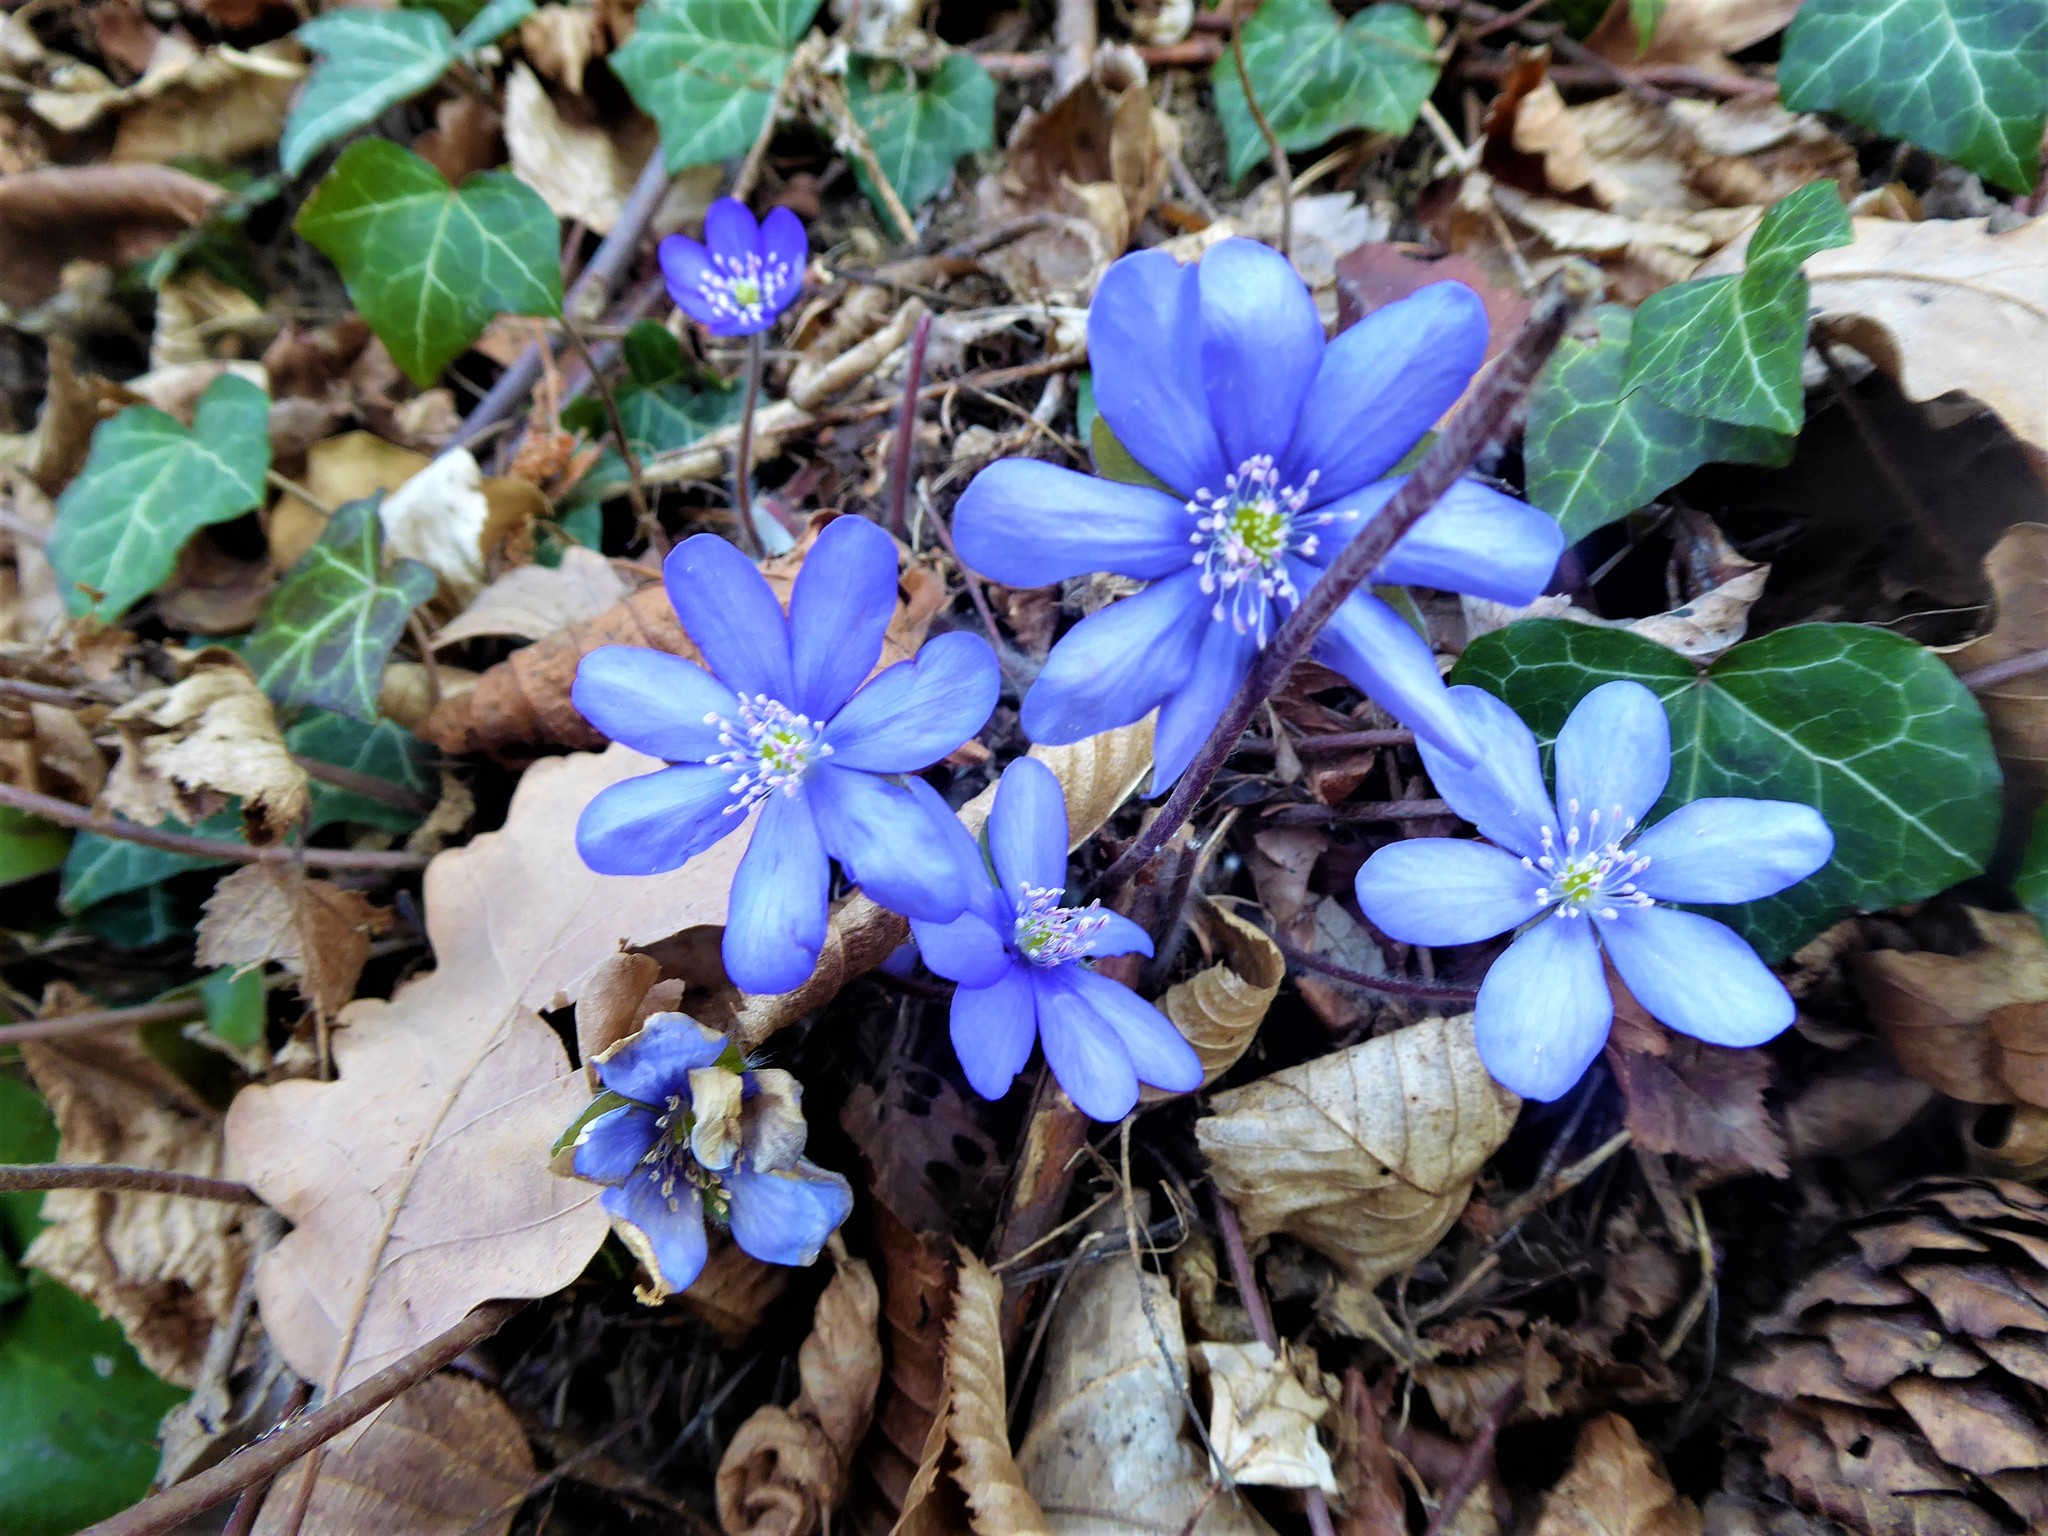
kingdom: Plantae
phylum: Tracheophyta
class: Magnoliopsida
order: Ranunculales
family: Ranunculaceae
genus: Hepatica
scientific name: Hepatica nobilis
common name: Liverleaf
